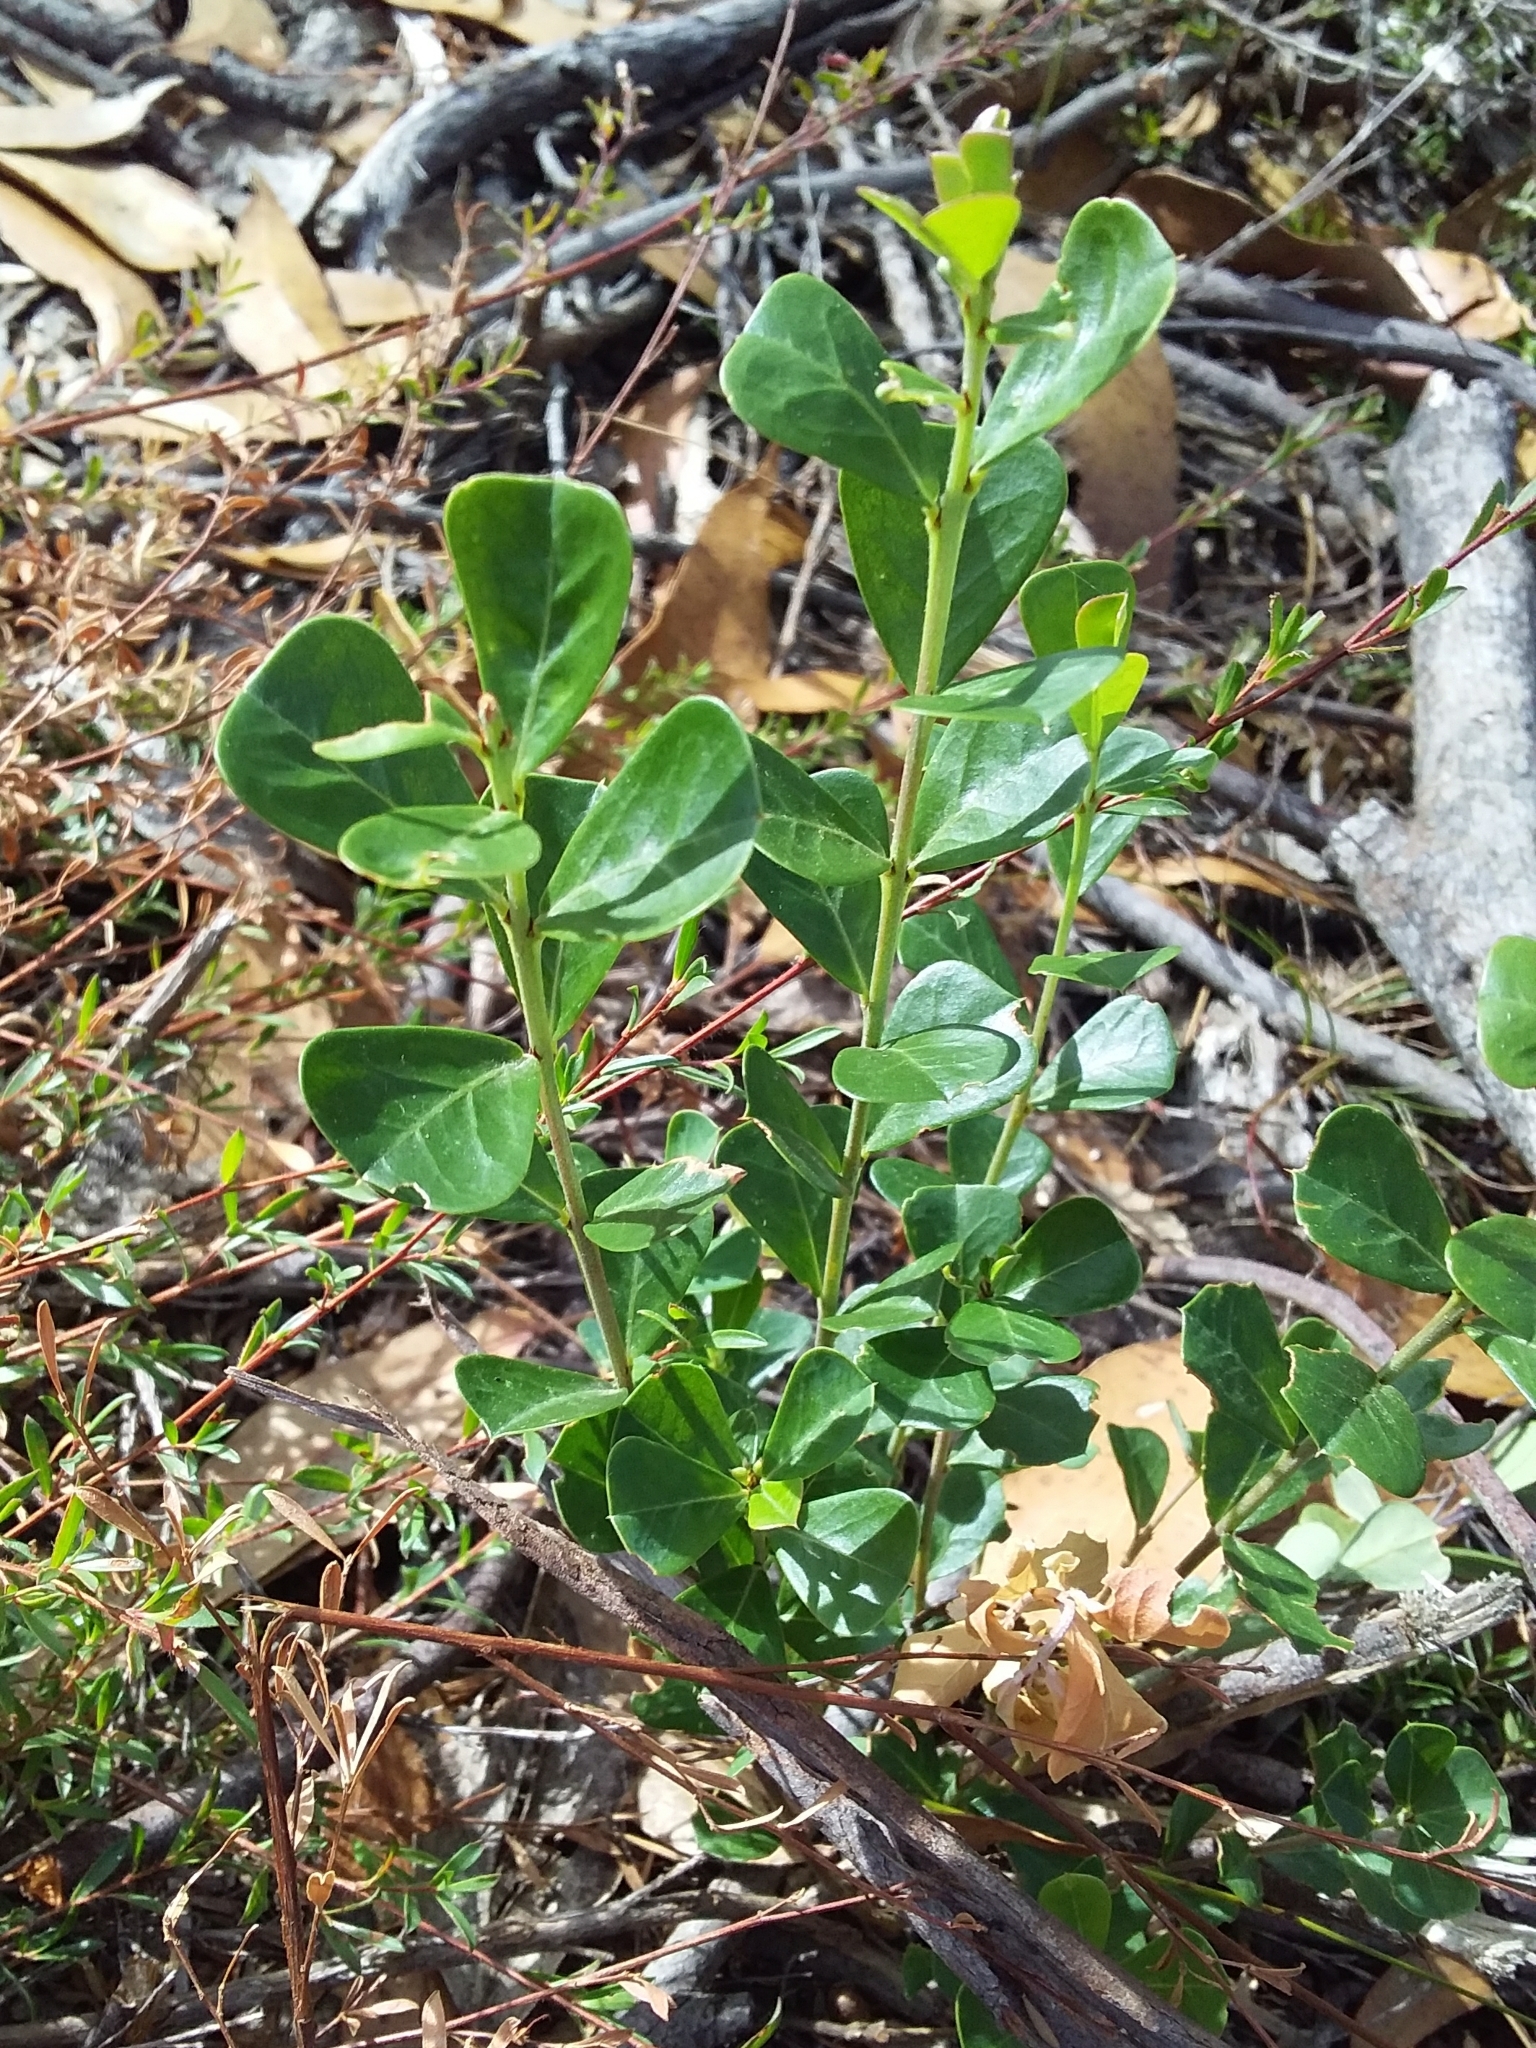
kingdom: Plantae
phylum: Tracheophyta
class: Magnoliopsida
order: Fabales
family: Fabaceae
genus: Pultenaea
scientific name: Pultenaea daphnoides
